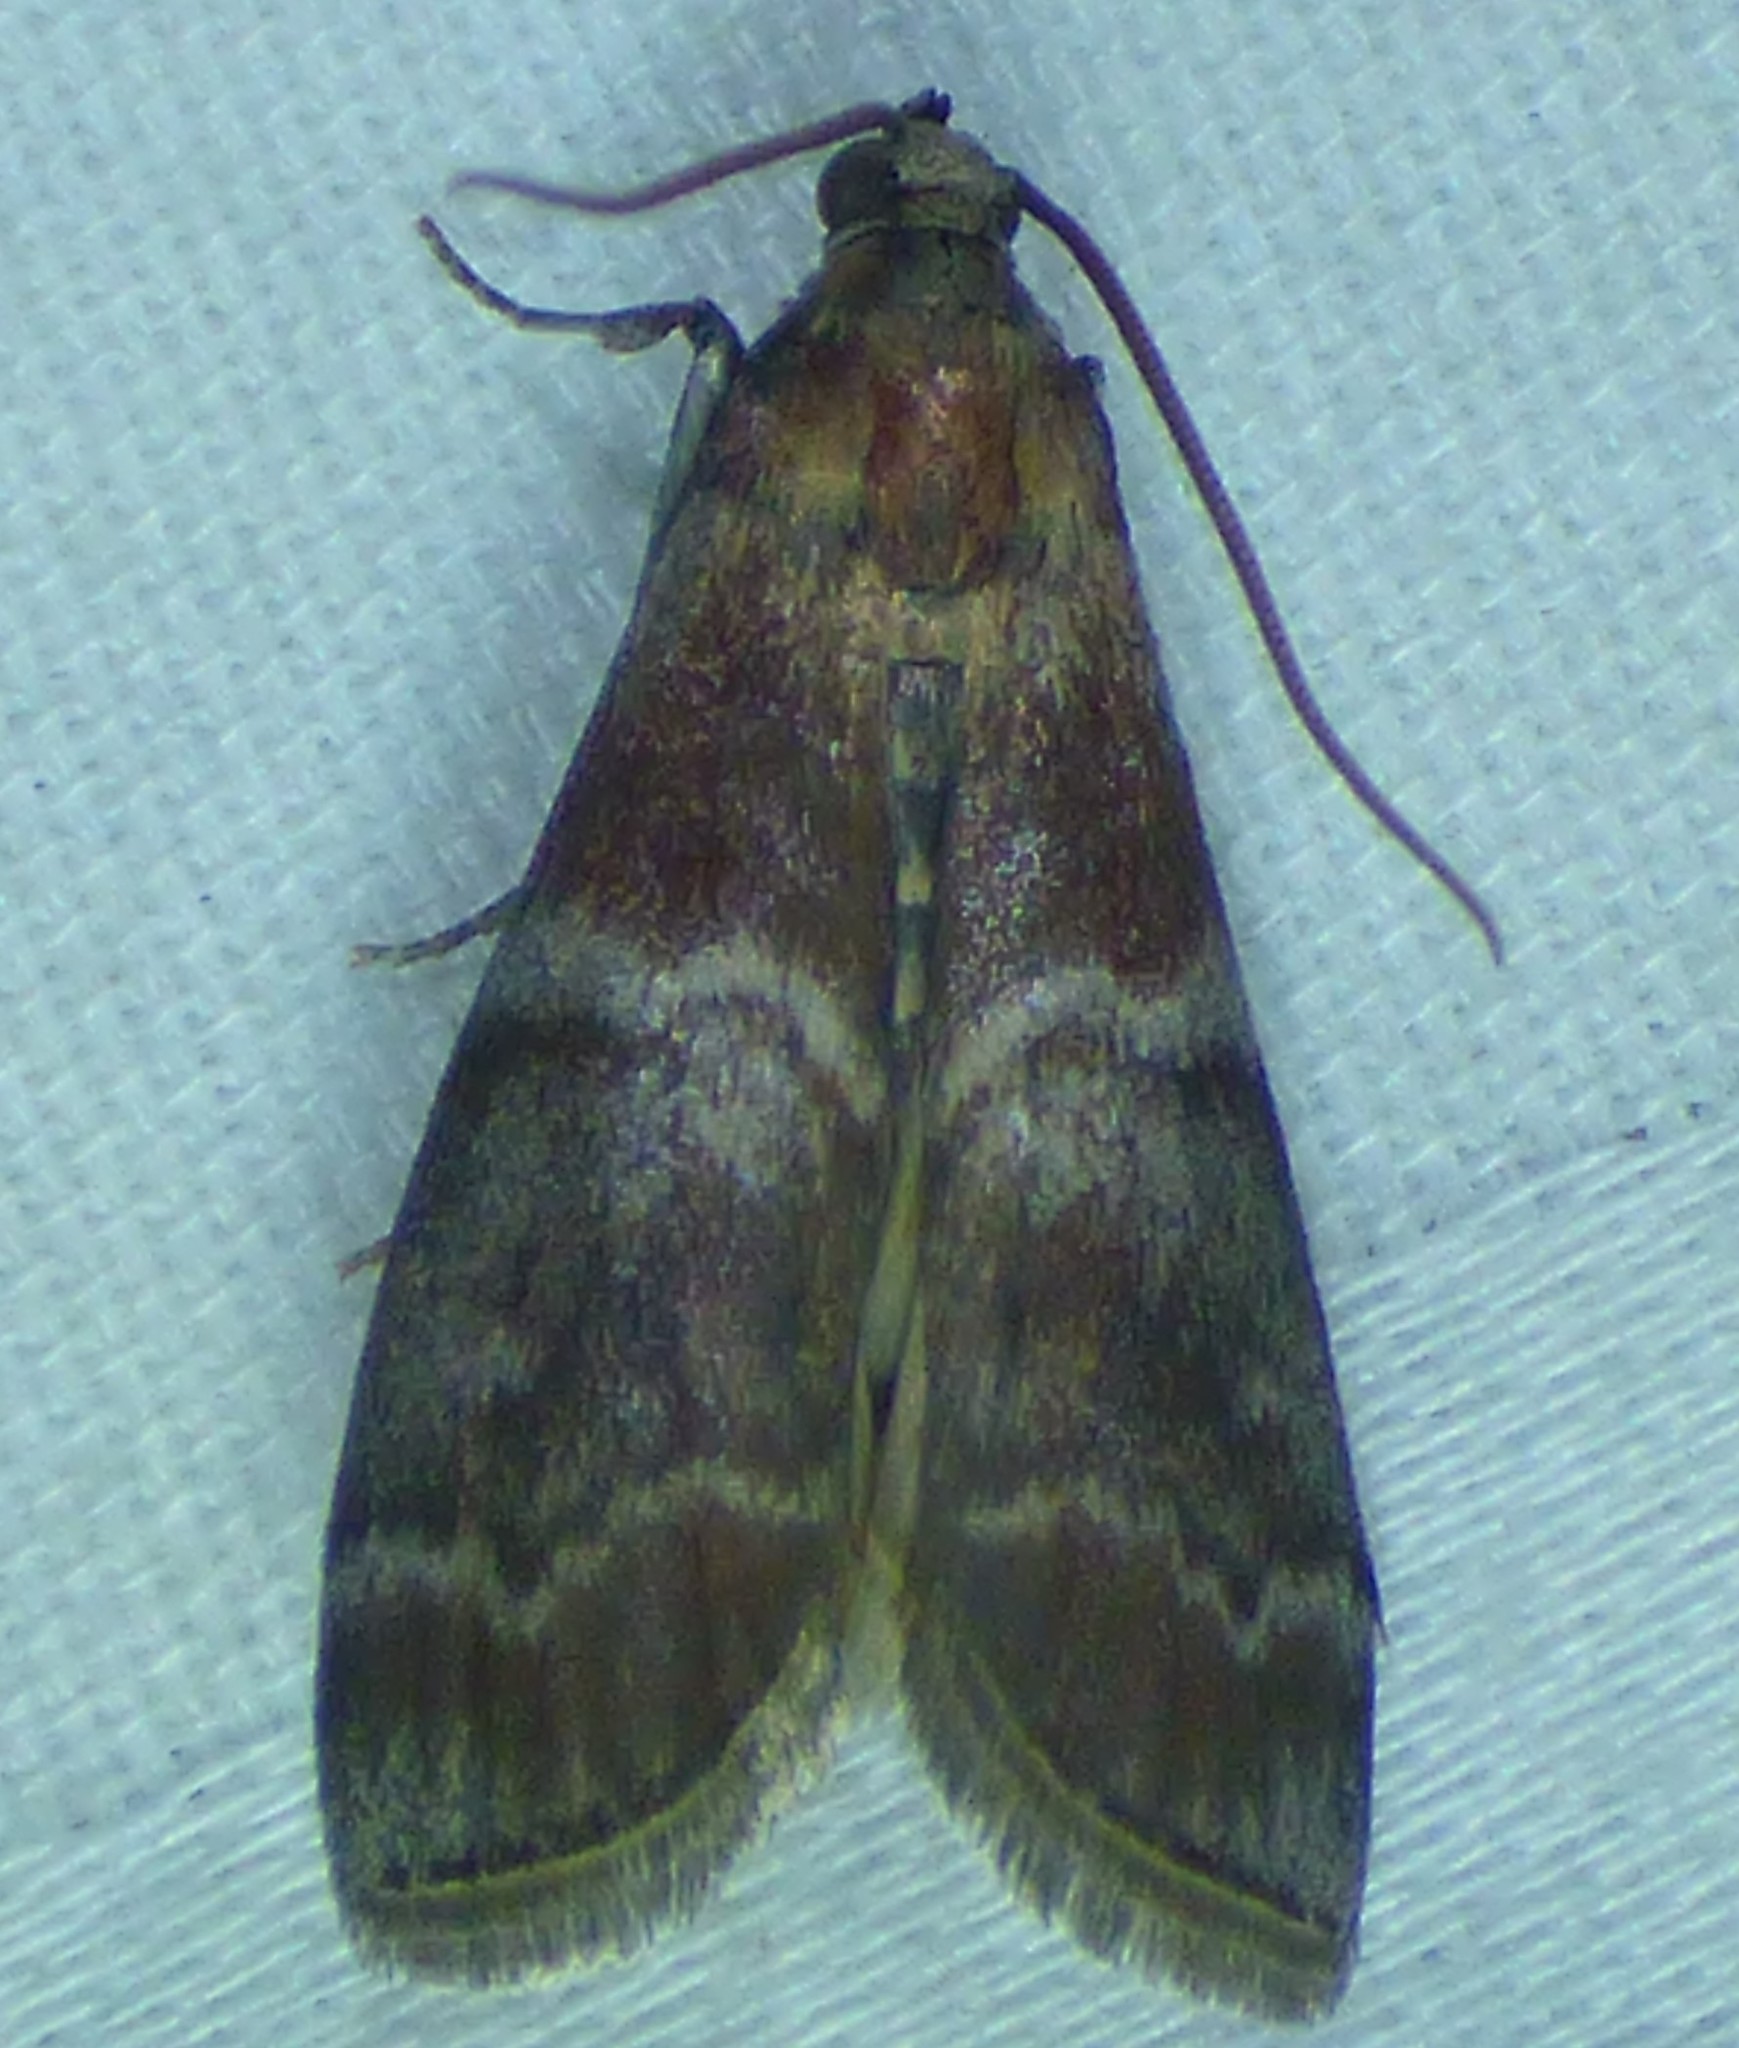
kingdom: Animalia
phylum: Arthropoda
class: Insecta
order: Lepidoptera
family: Pyralidae
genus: Euzophera
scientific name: Euzophera ostricolorella
